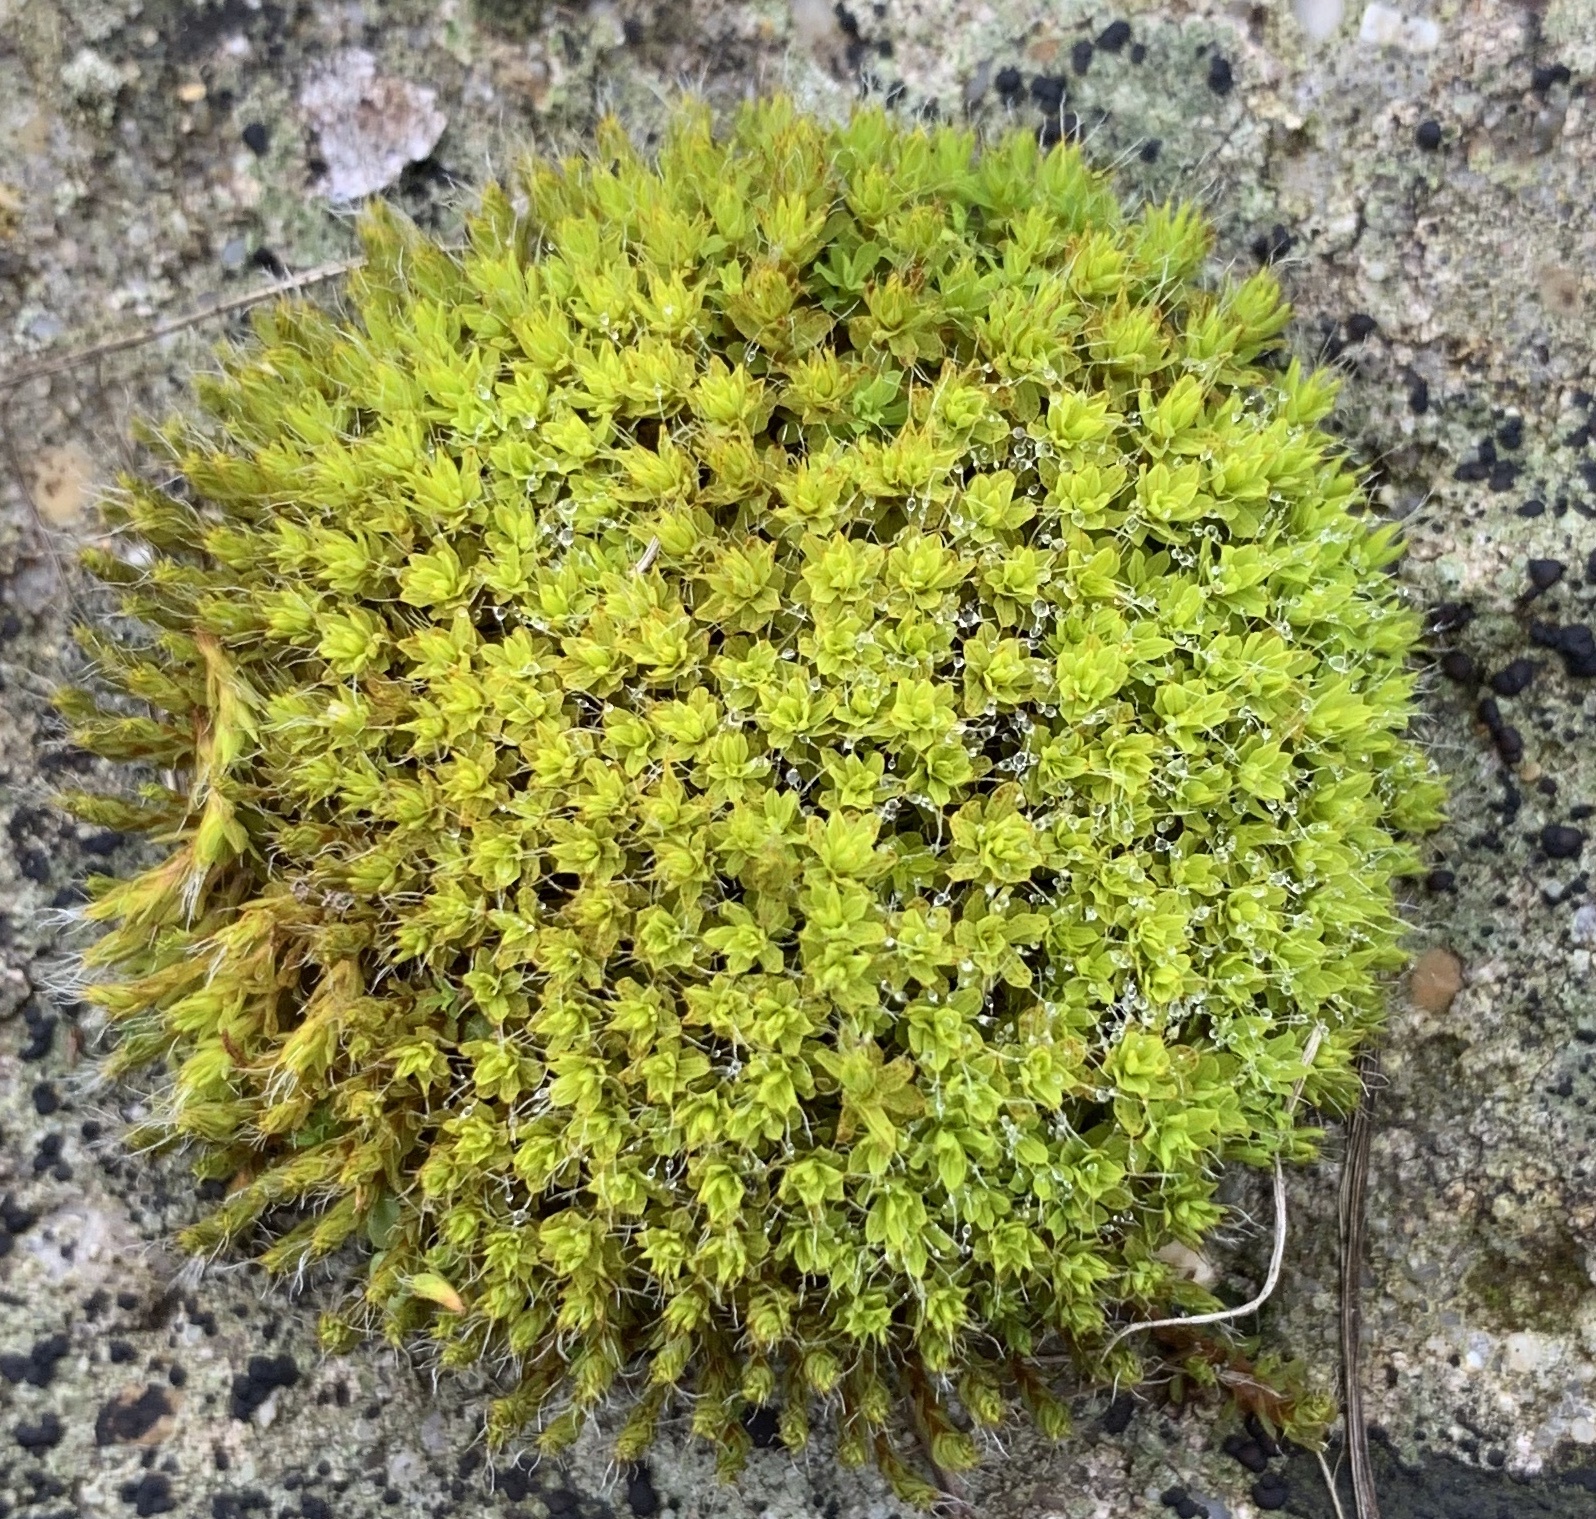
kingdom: Plantae
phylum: Bryophyta
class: Bryopsida
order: Pottiales
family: Pottiaceae
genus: Syntrichia
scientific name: Syntrichia montana
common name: Intermediate screw-moss
